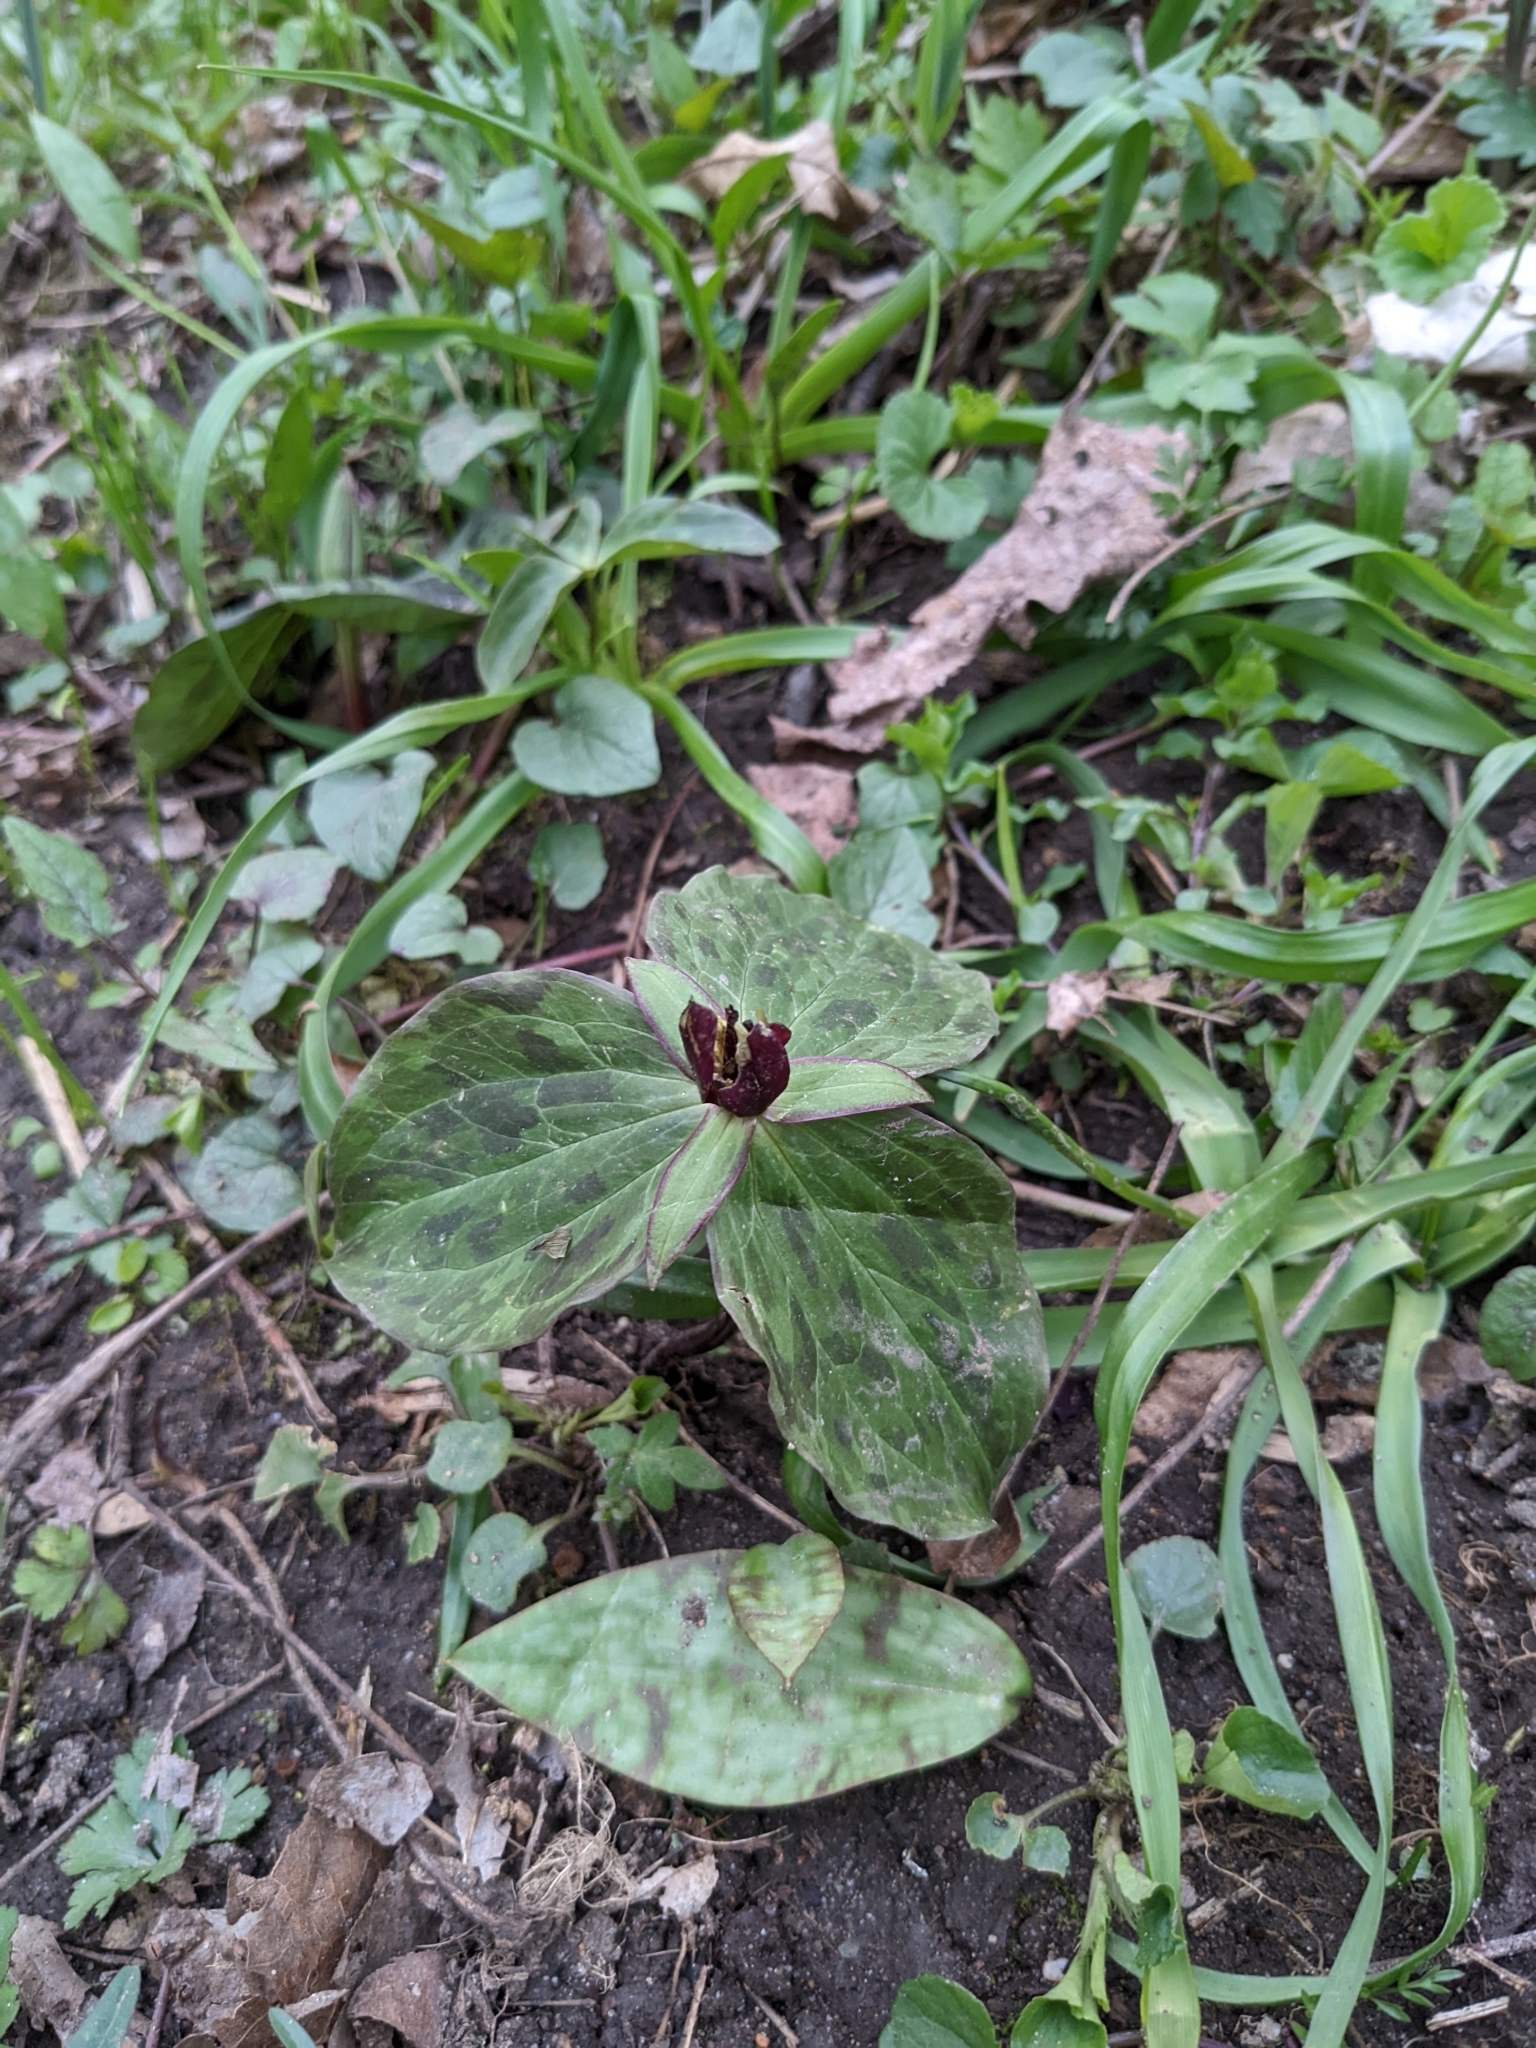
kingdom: Plantae
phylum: Tracheophyta
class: Liliopsida
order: Liliales
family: Melanthiaceae
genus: Trillium
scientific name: Trillium sessile
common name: Sessile trillium
